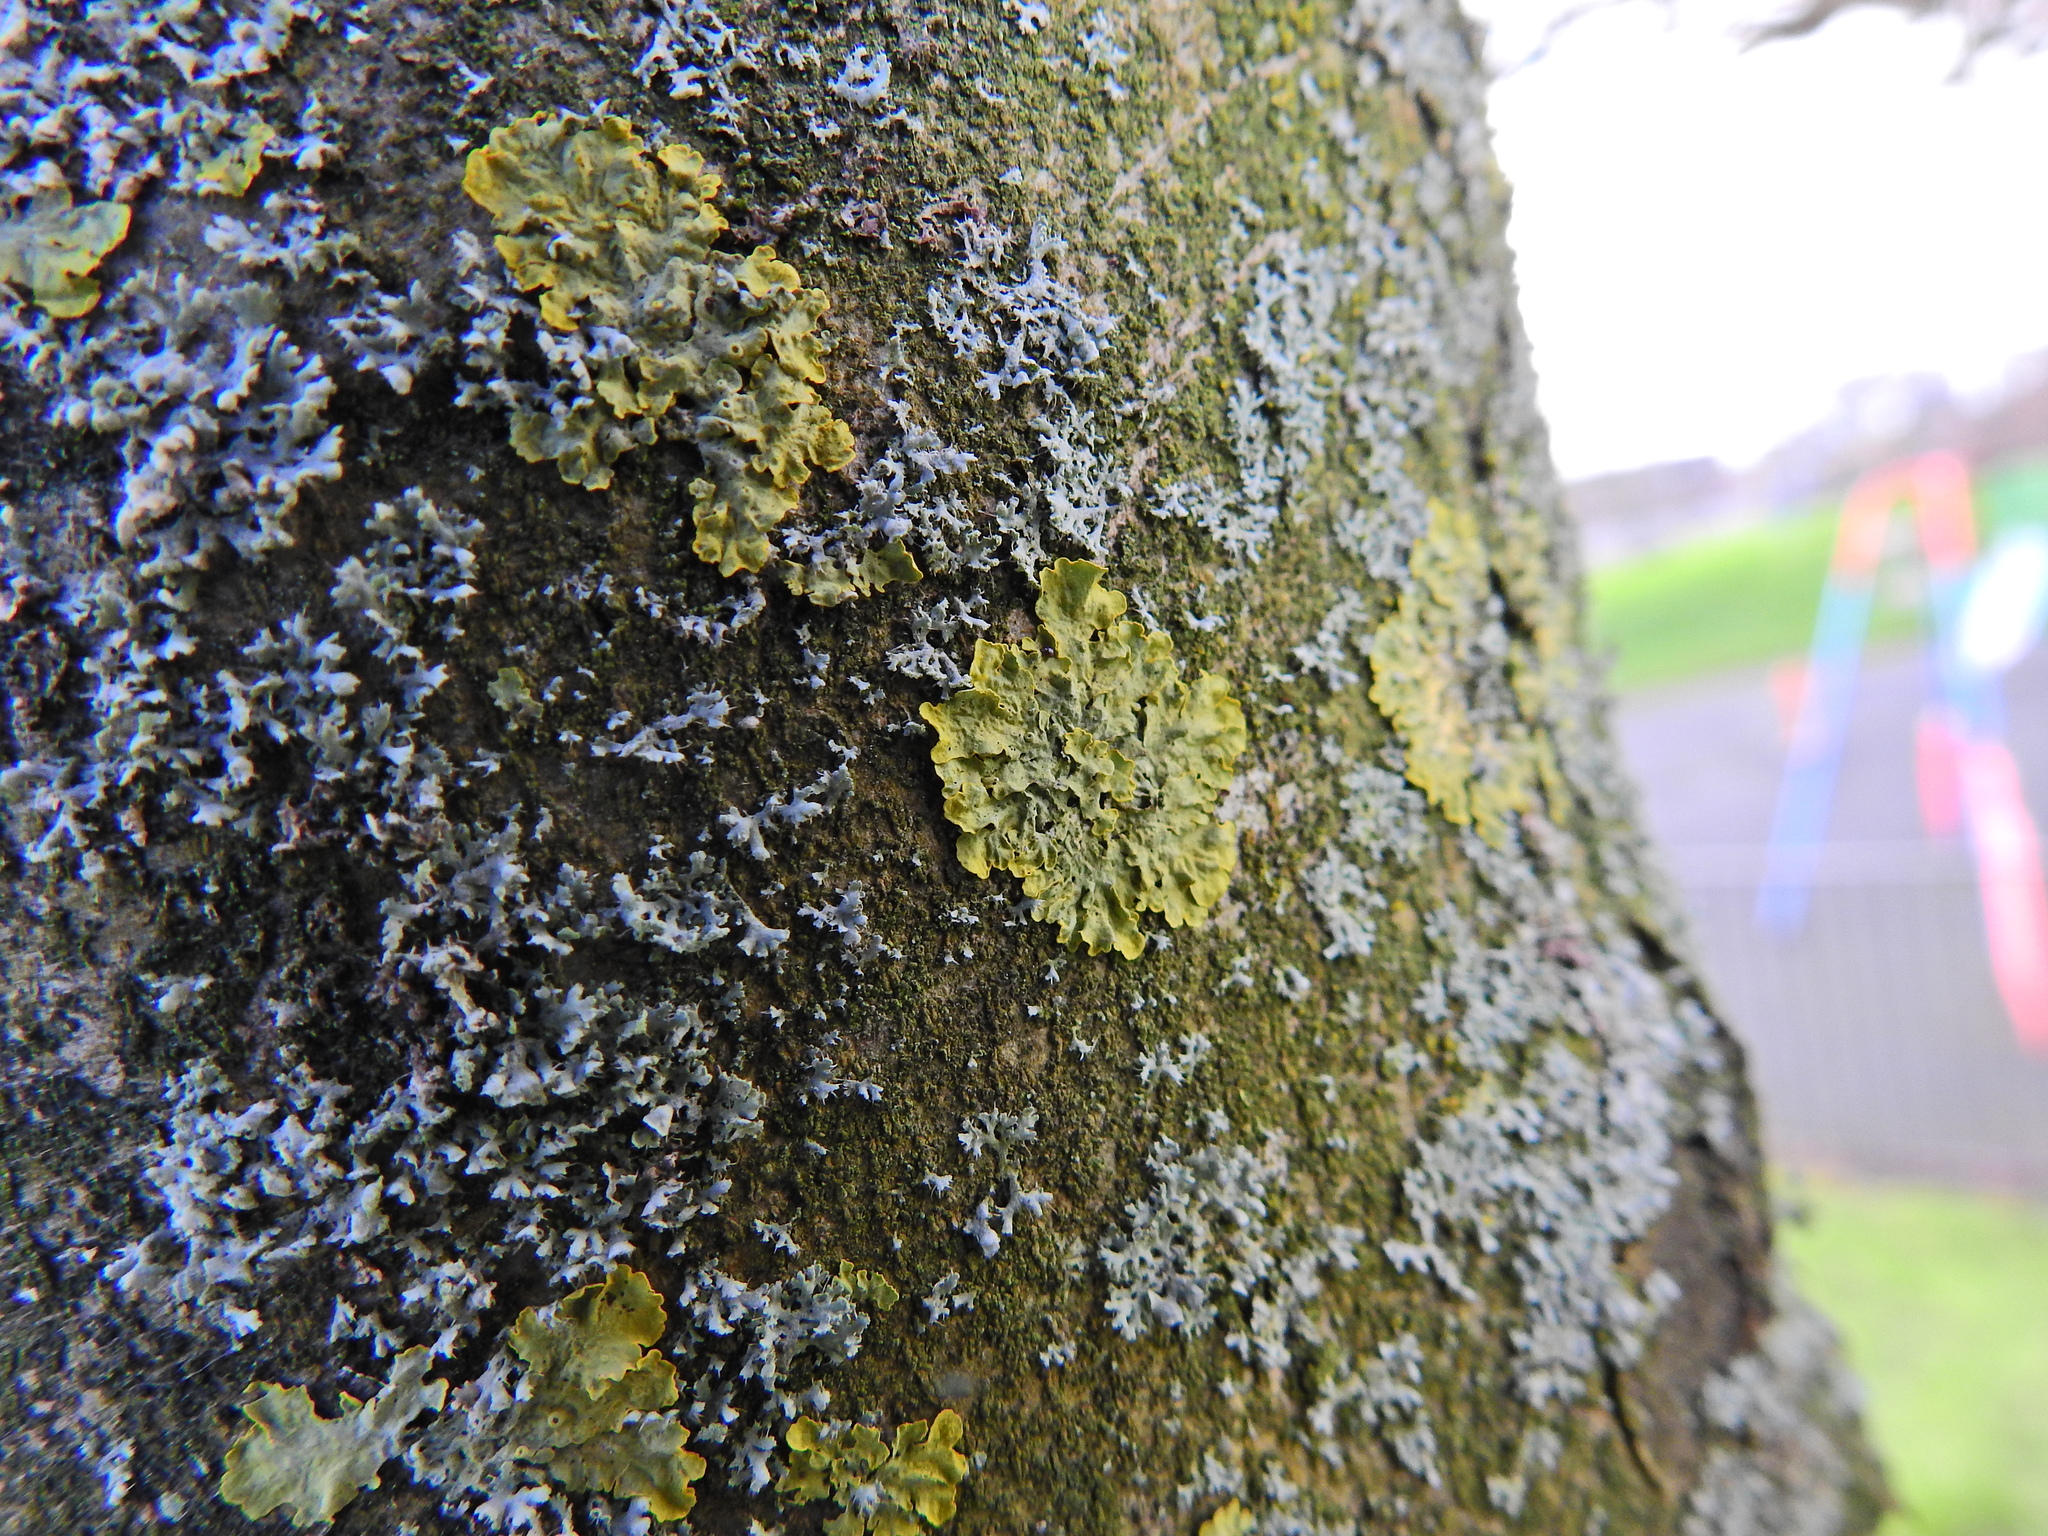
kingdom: Fungi
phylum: Ascomycota
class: Lecanoromycetes
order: Teloschistales
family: Teloschistaceae
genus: Xanthoria
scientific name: Xanthoria parietina
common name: Common orange lichen
